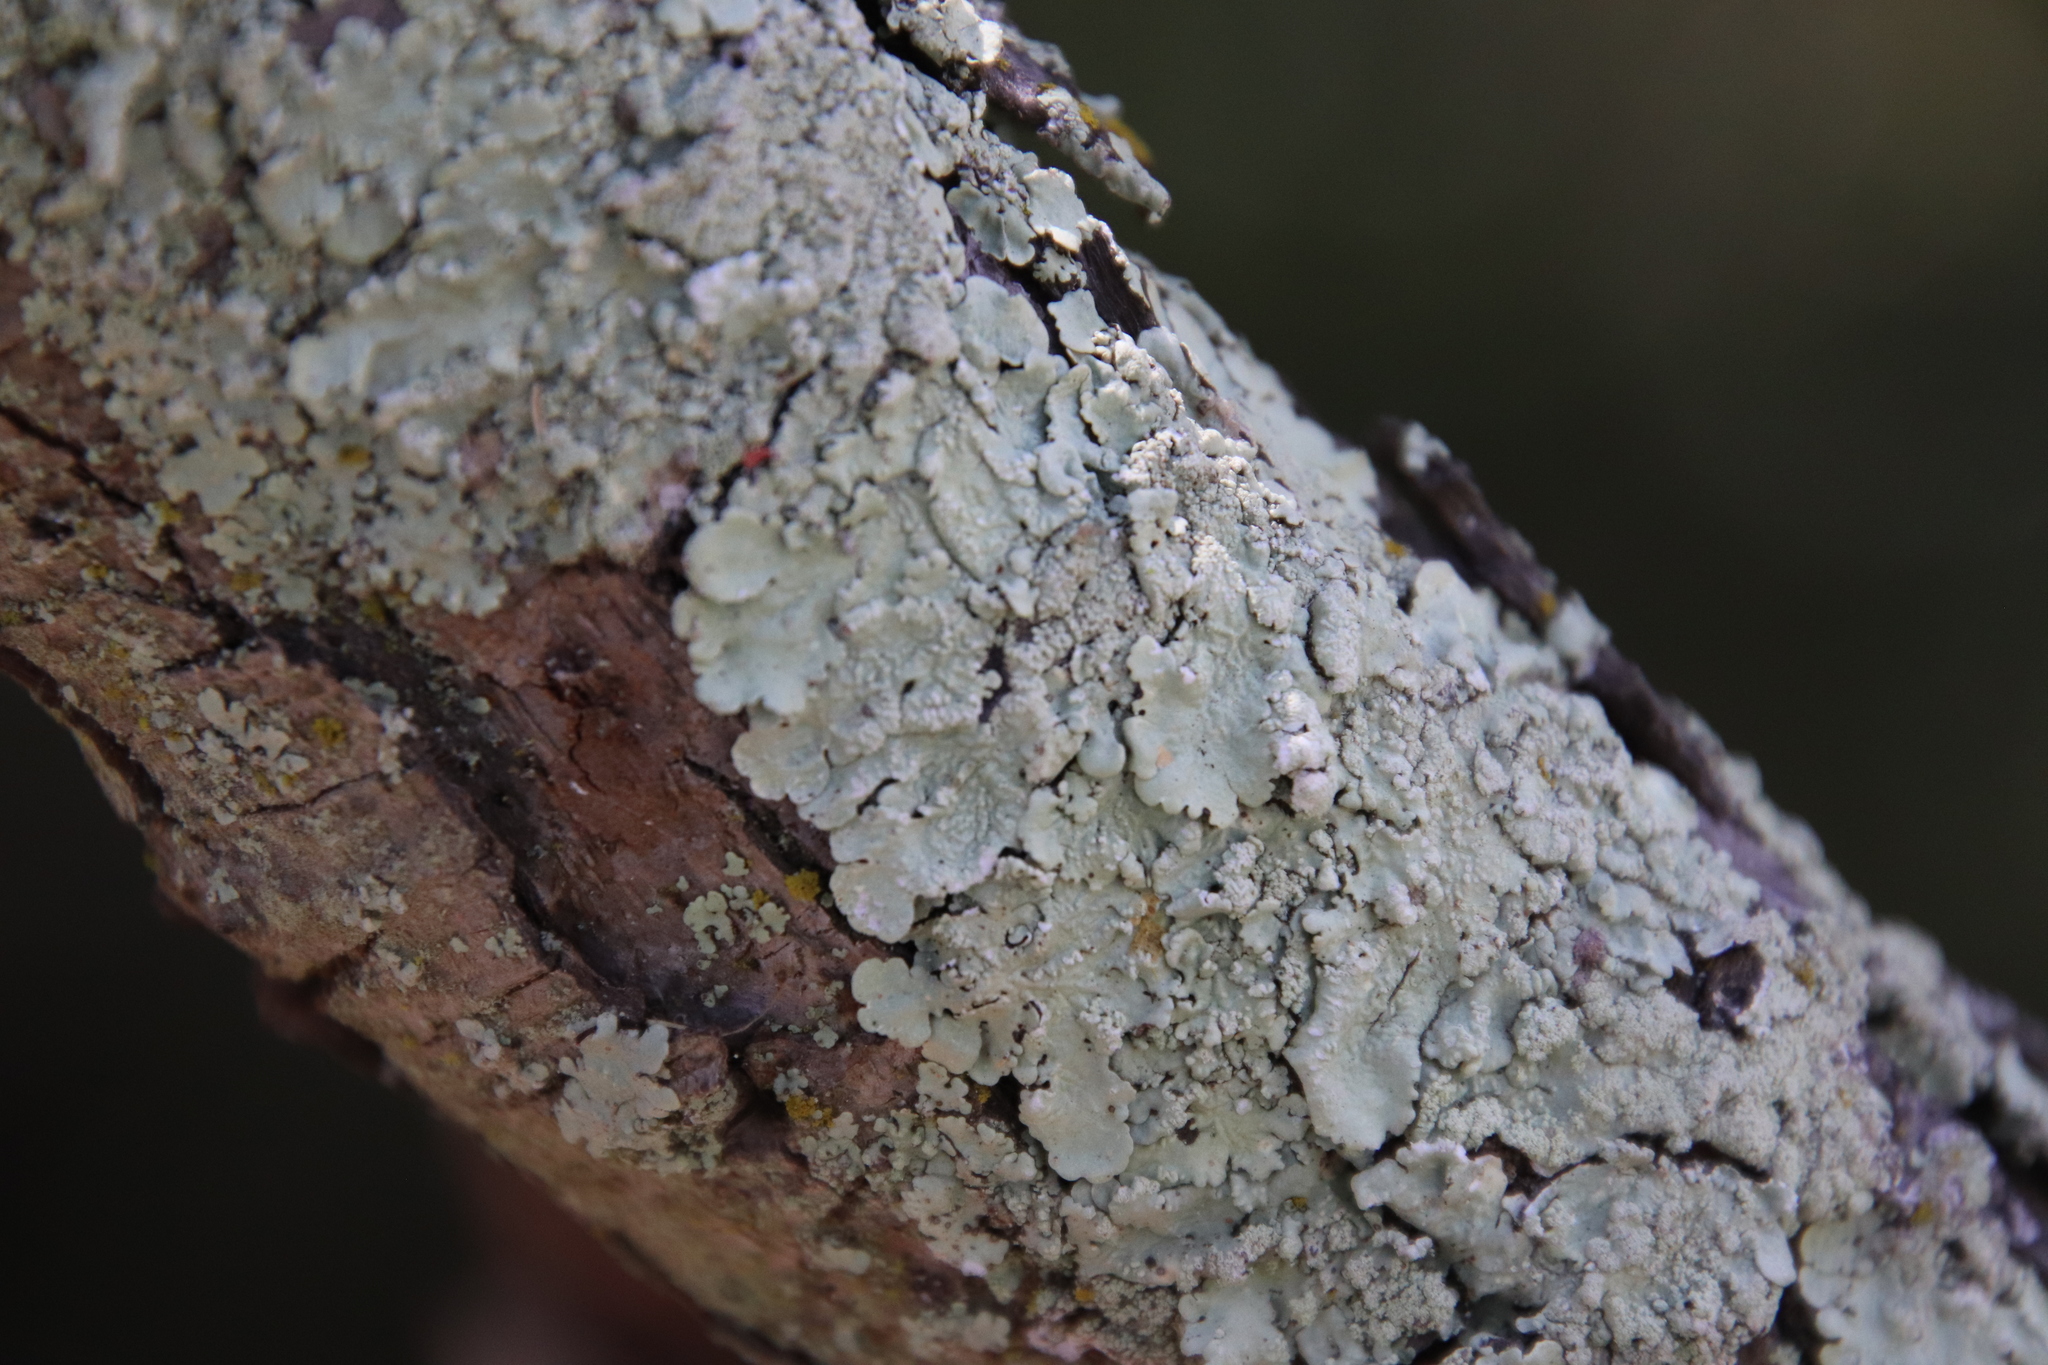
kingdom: Fungi
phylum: Ascomycota
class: Lecanoromycetes
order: Lecanorales
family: Parmeliaceae
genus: Flavoparmelia
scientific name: Flavoparmelia caperata
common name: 40-mile per hour lichen
